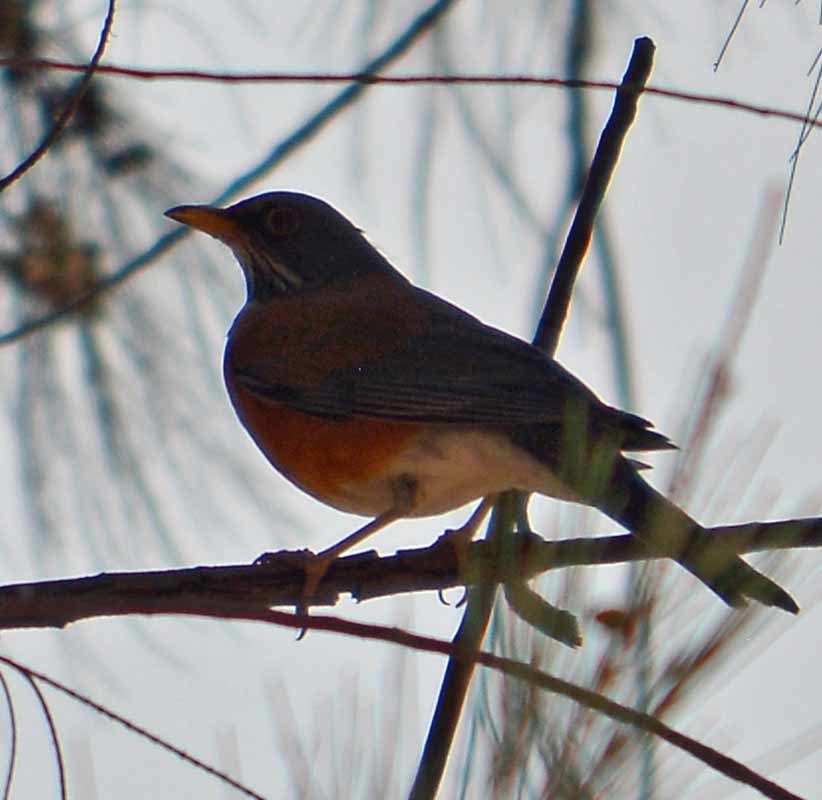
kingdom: Animalia
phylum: Chordata
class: Aves
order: Passeriformes
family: Turdidae
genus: Turdus
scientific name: Turdus rufopalliatus
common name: Rufous-backed robin
